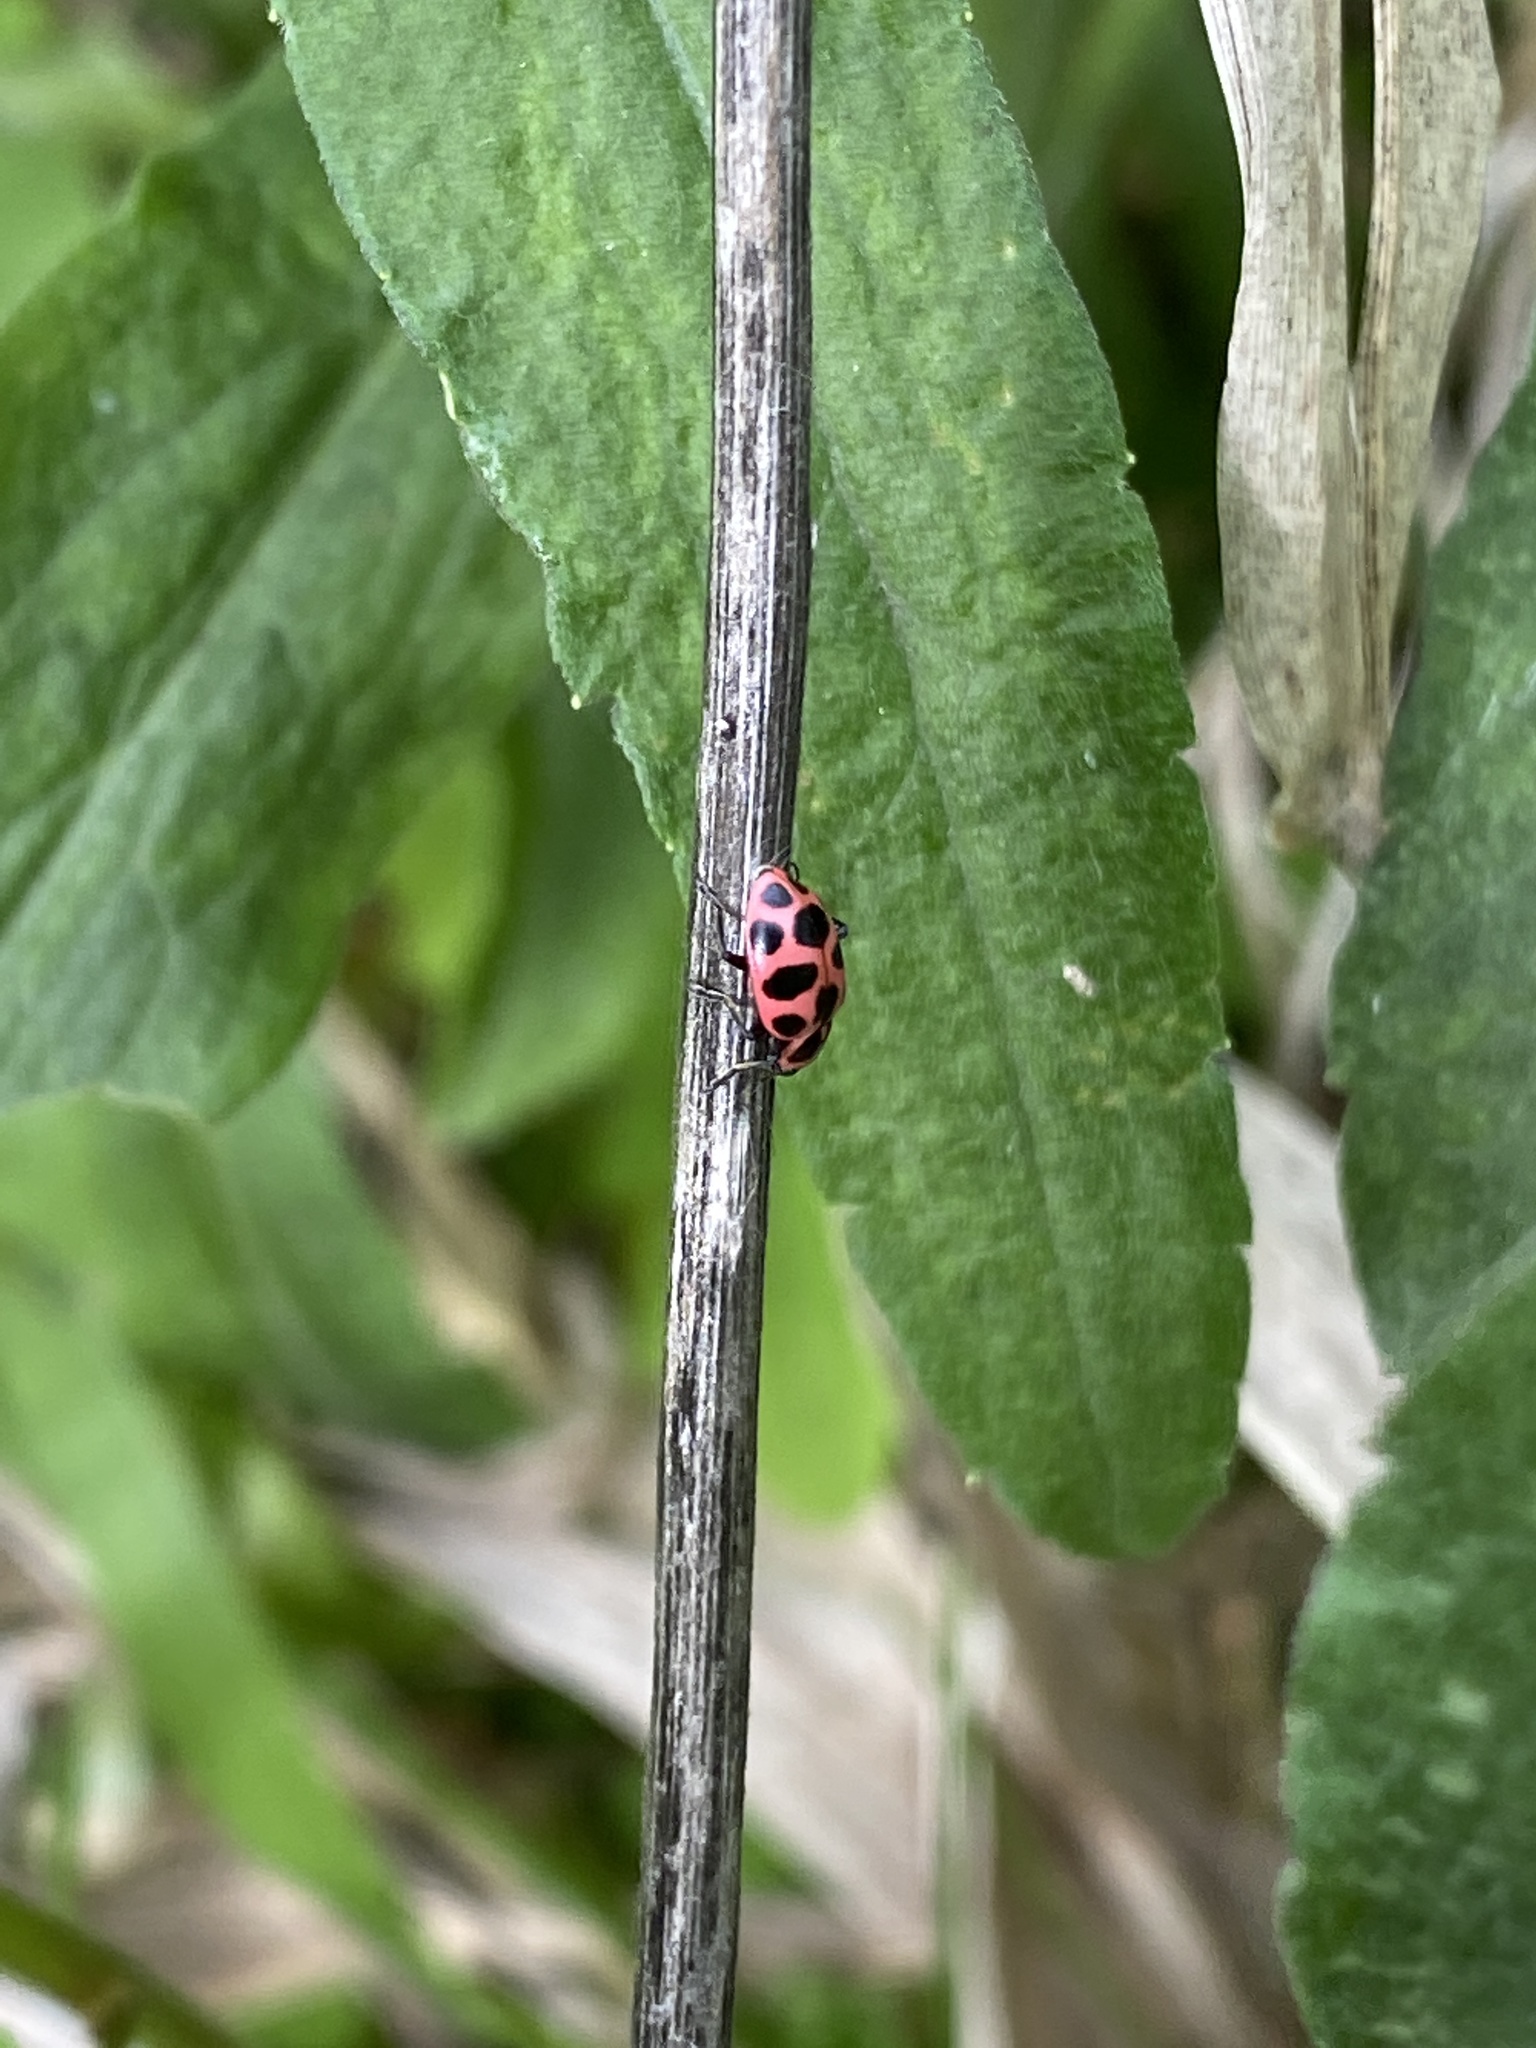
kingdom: Animalia
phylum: Arthropoda
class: Insecta
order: Coleoptera
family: Coccinellidae
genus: Coleomegilla
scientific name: Coleomegilla maculata
